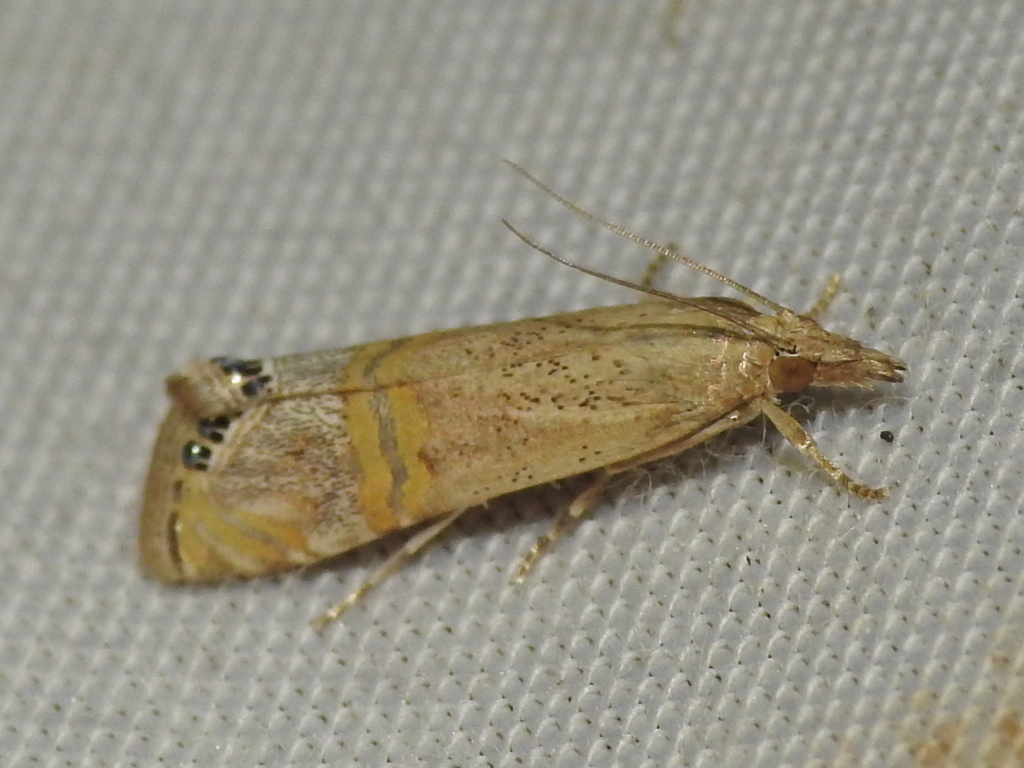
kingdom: Animalia
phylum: Arthropoda
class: Insecta
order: Lepidoptera
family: Crambidae
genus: Euchromius
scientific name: Euchromius ocellea
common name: Necklace veneer moth
